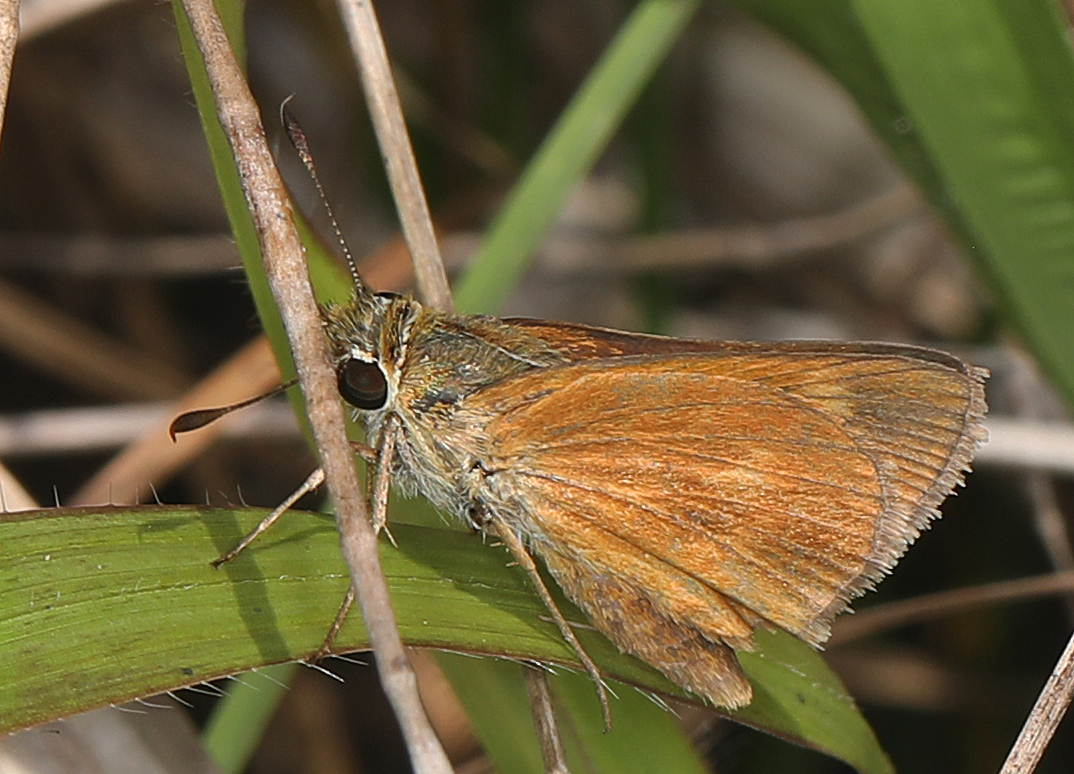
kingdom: Animalia
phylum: Arthropoda
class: Insecta
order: Lepidoptera
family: Hesperiidae
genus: Polites
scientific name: Polites otho
